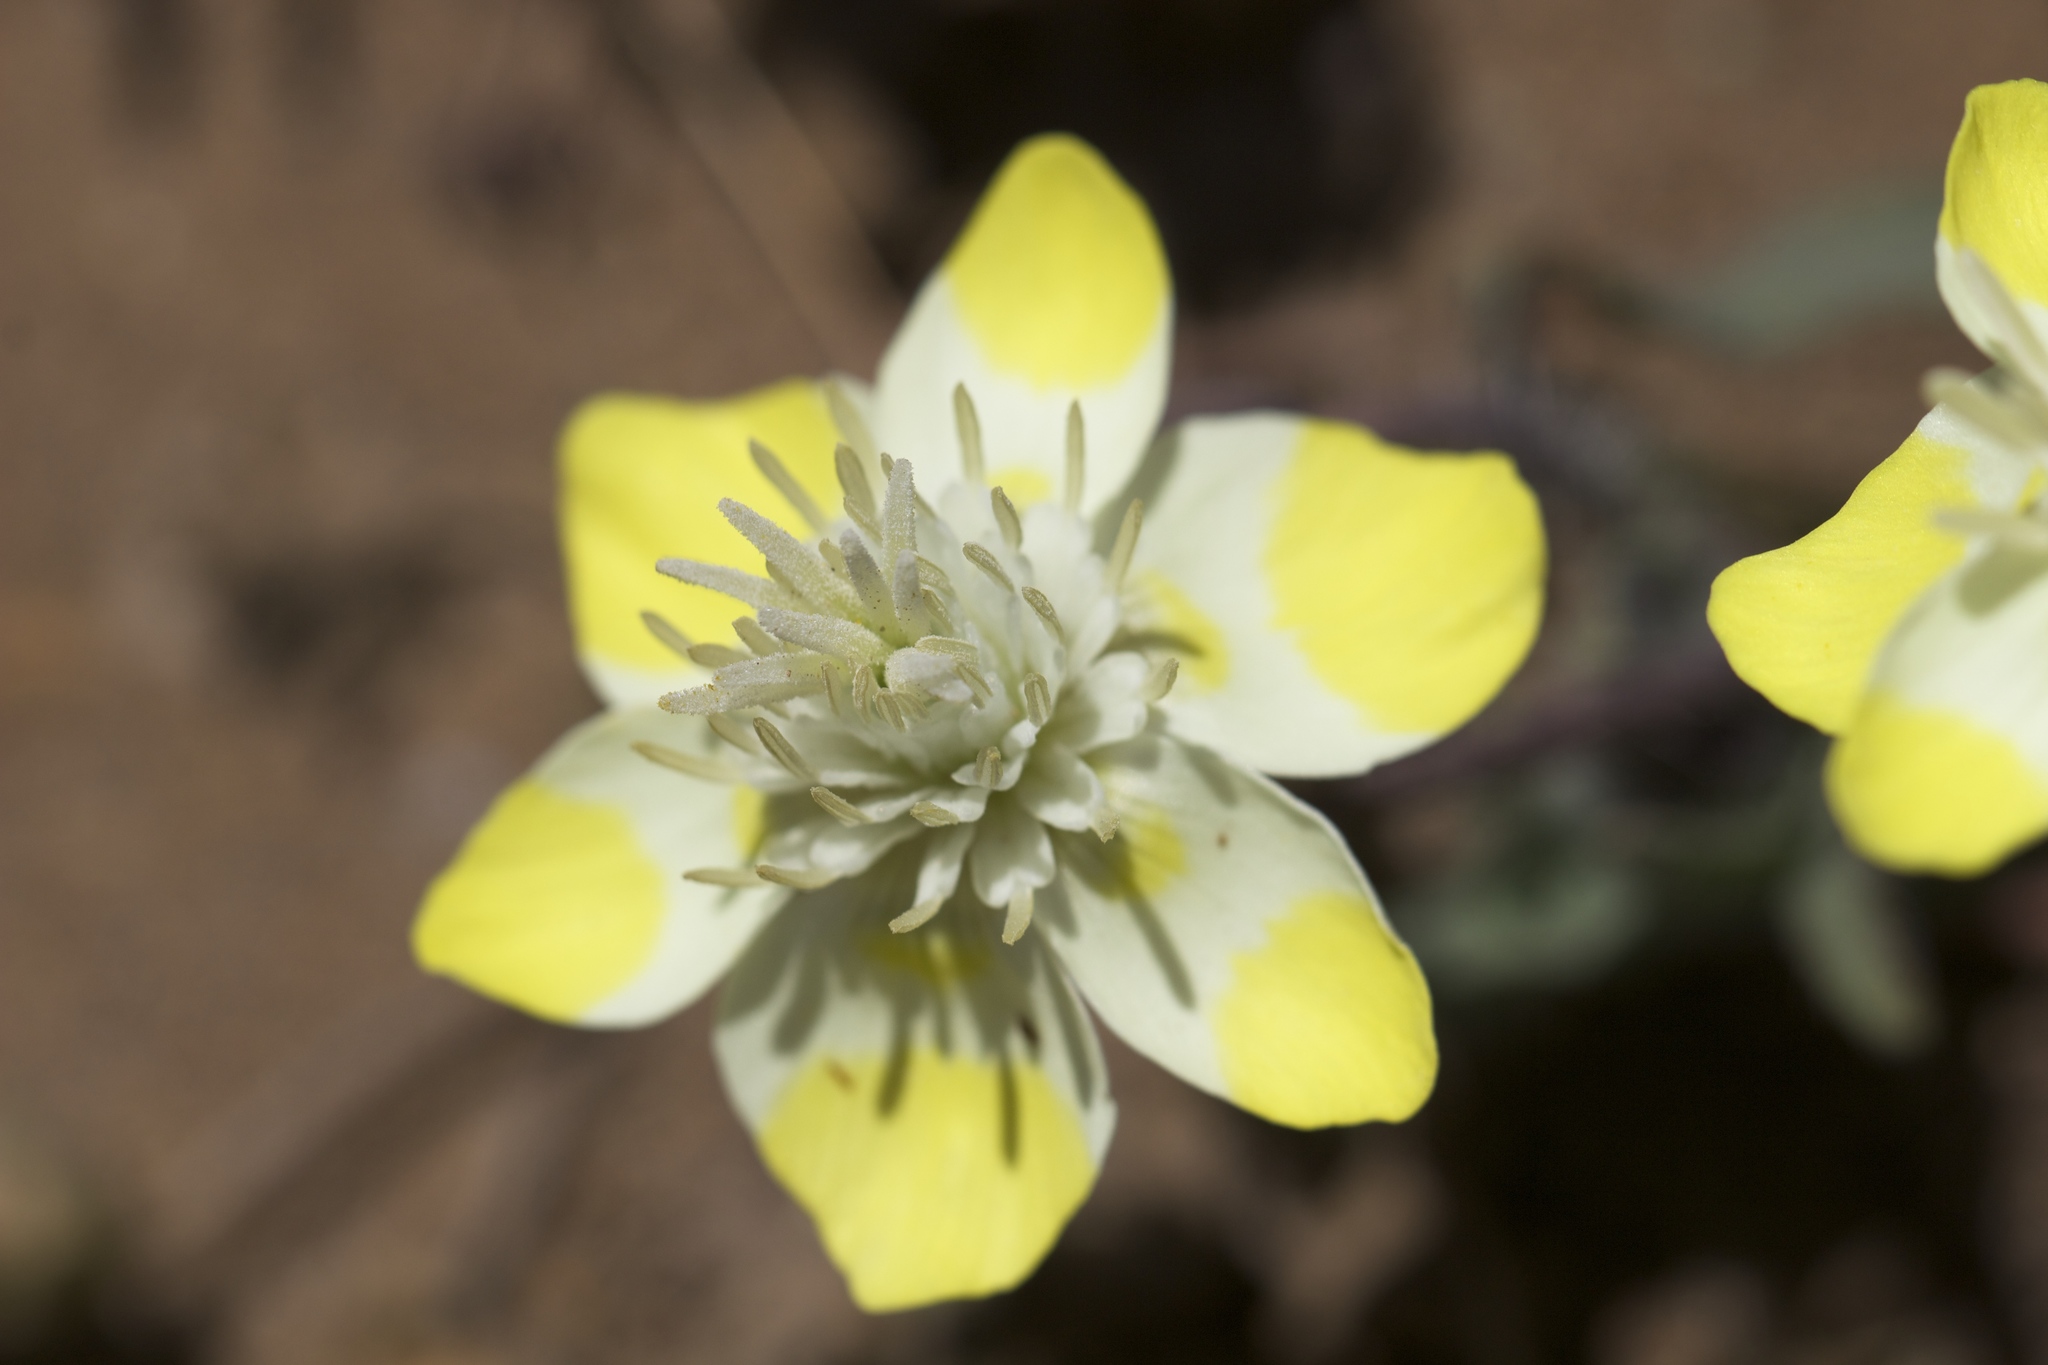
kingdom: Plantae
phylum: Tracheophyta
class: Magnoliopsida
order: Ranunculales
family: Papaveraceae
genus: Platystemon
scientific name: Platystemon californicus
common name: Cream-cups
